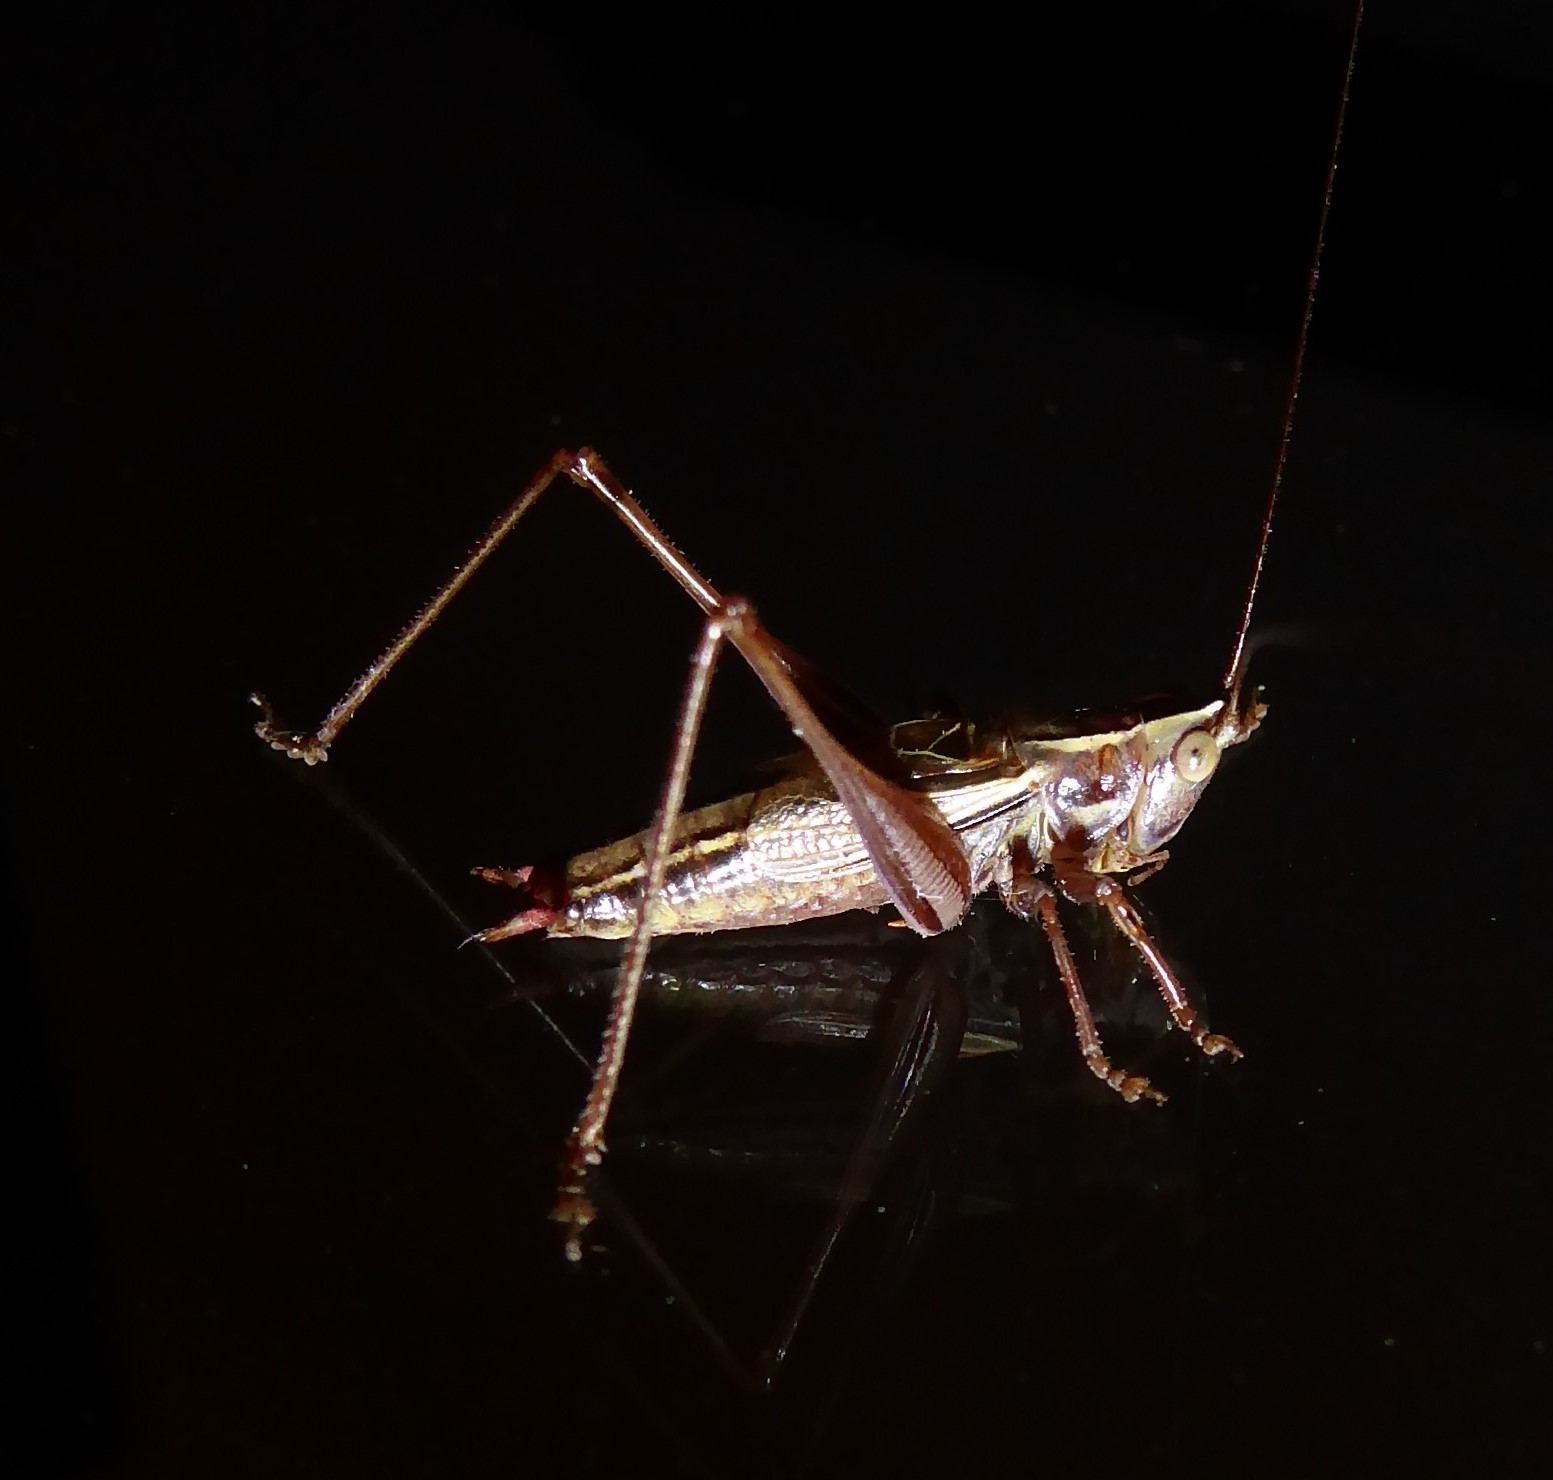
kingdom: Animalia
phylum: Arthropoda
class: Insecta
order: Orthoptera
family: Tettigoniidae
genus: Conocephalus
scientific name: Conocephalus bilineatus
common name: Small meadow katydid
